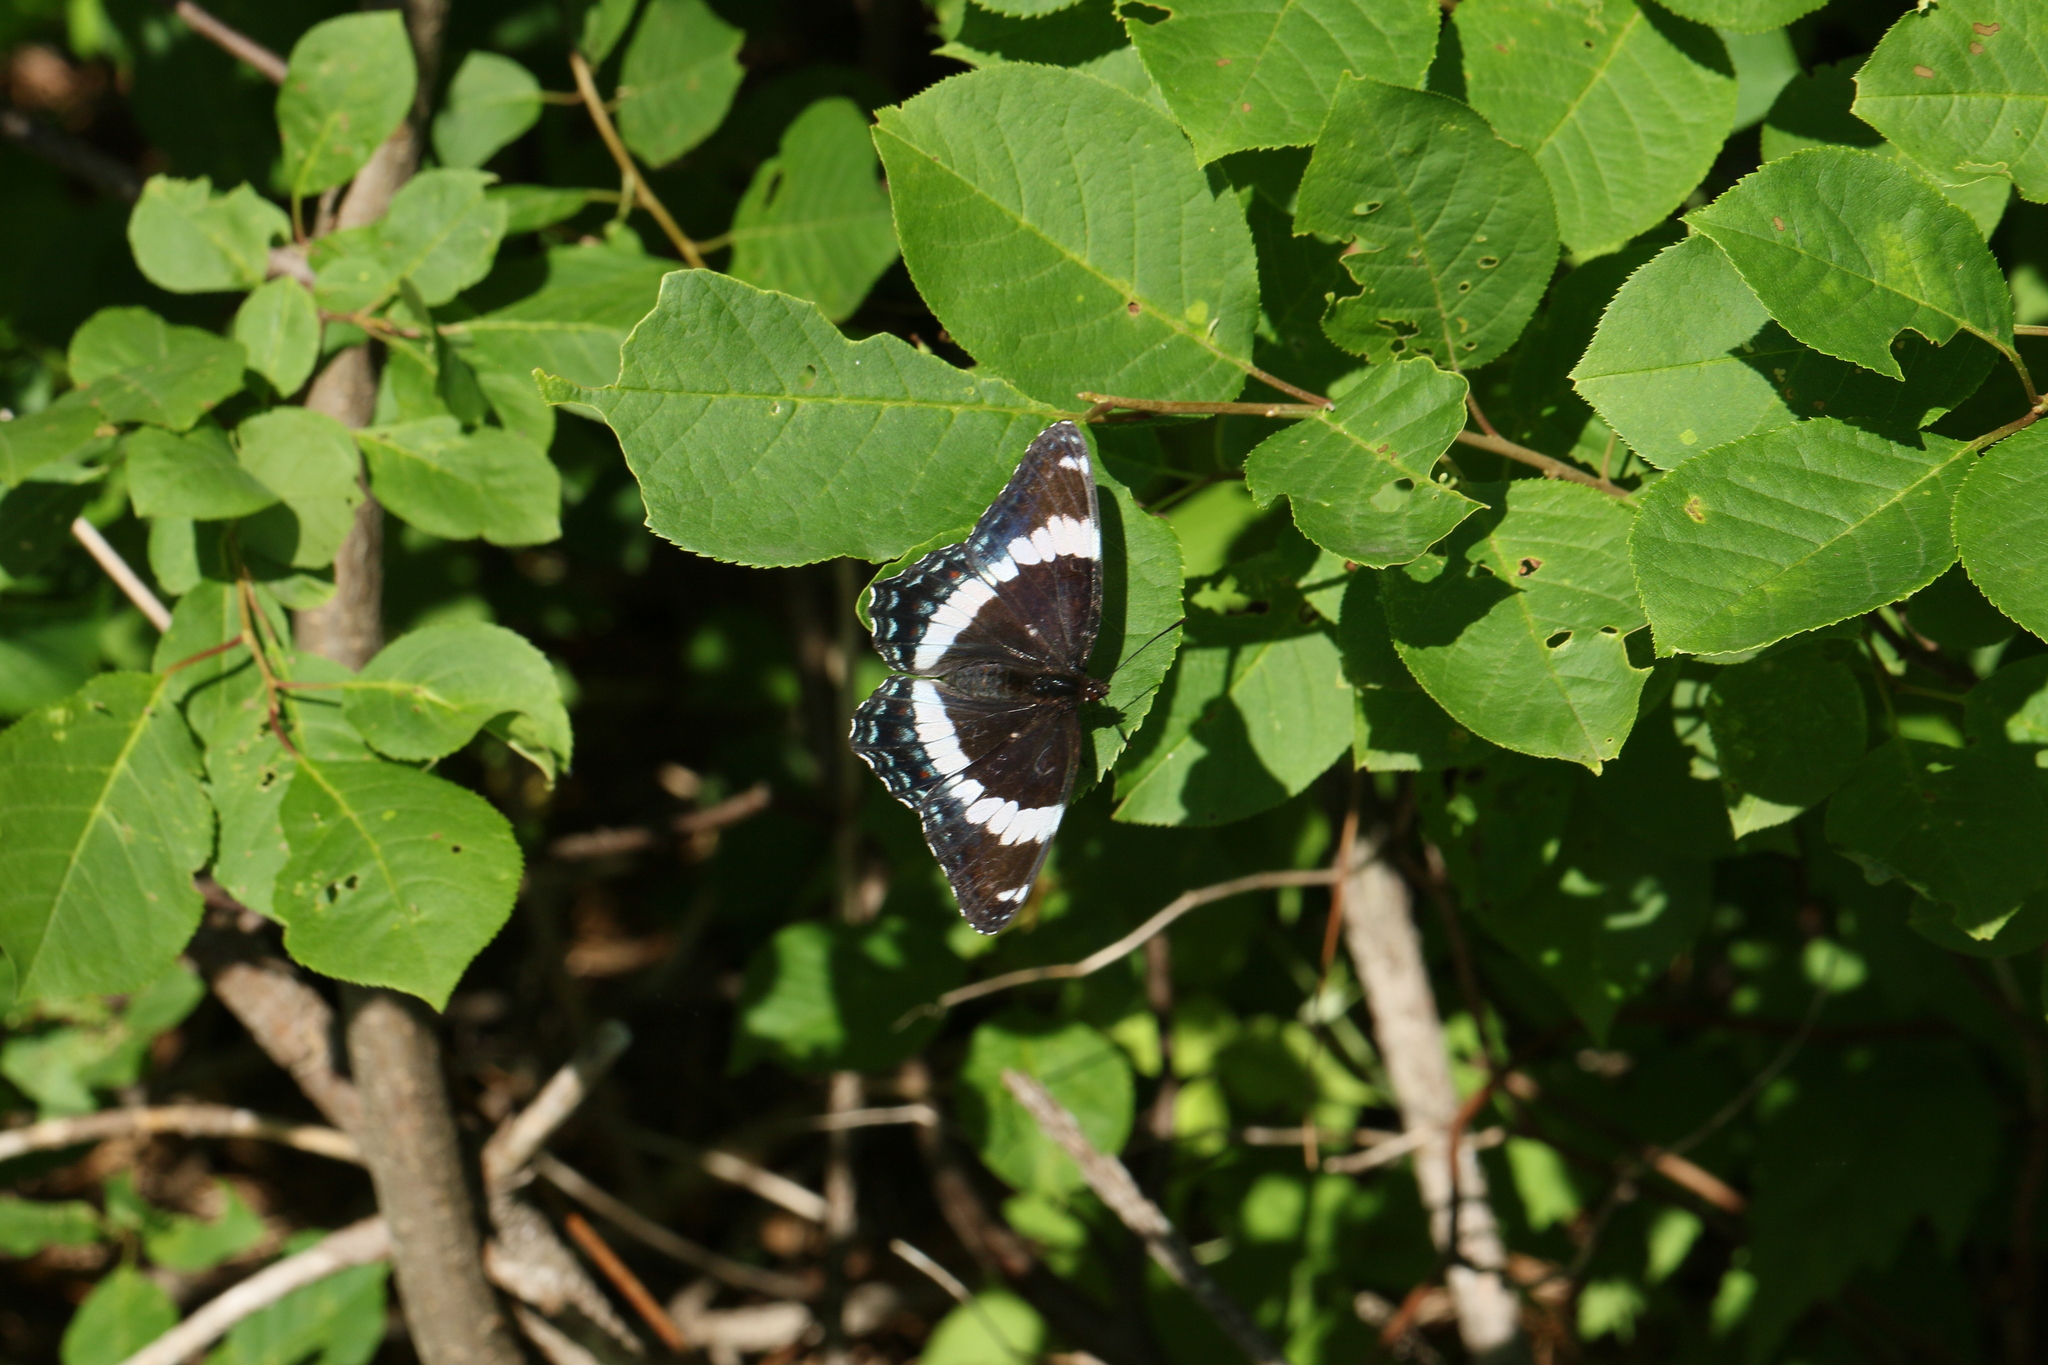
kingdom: Animalia
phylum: Arthropoda
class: Insecta
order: Lepidoptera
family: Nymphalidae
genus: Limenitis
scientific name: Limenitis arthemis
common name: Red-spotted admiral
